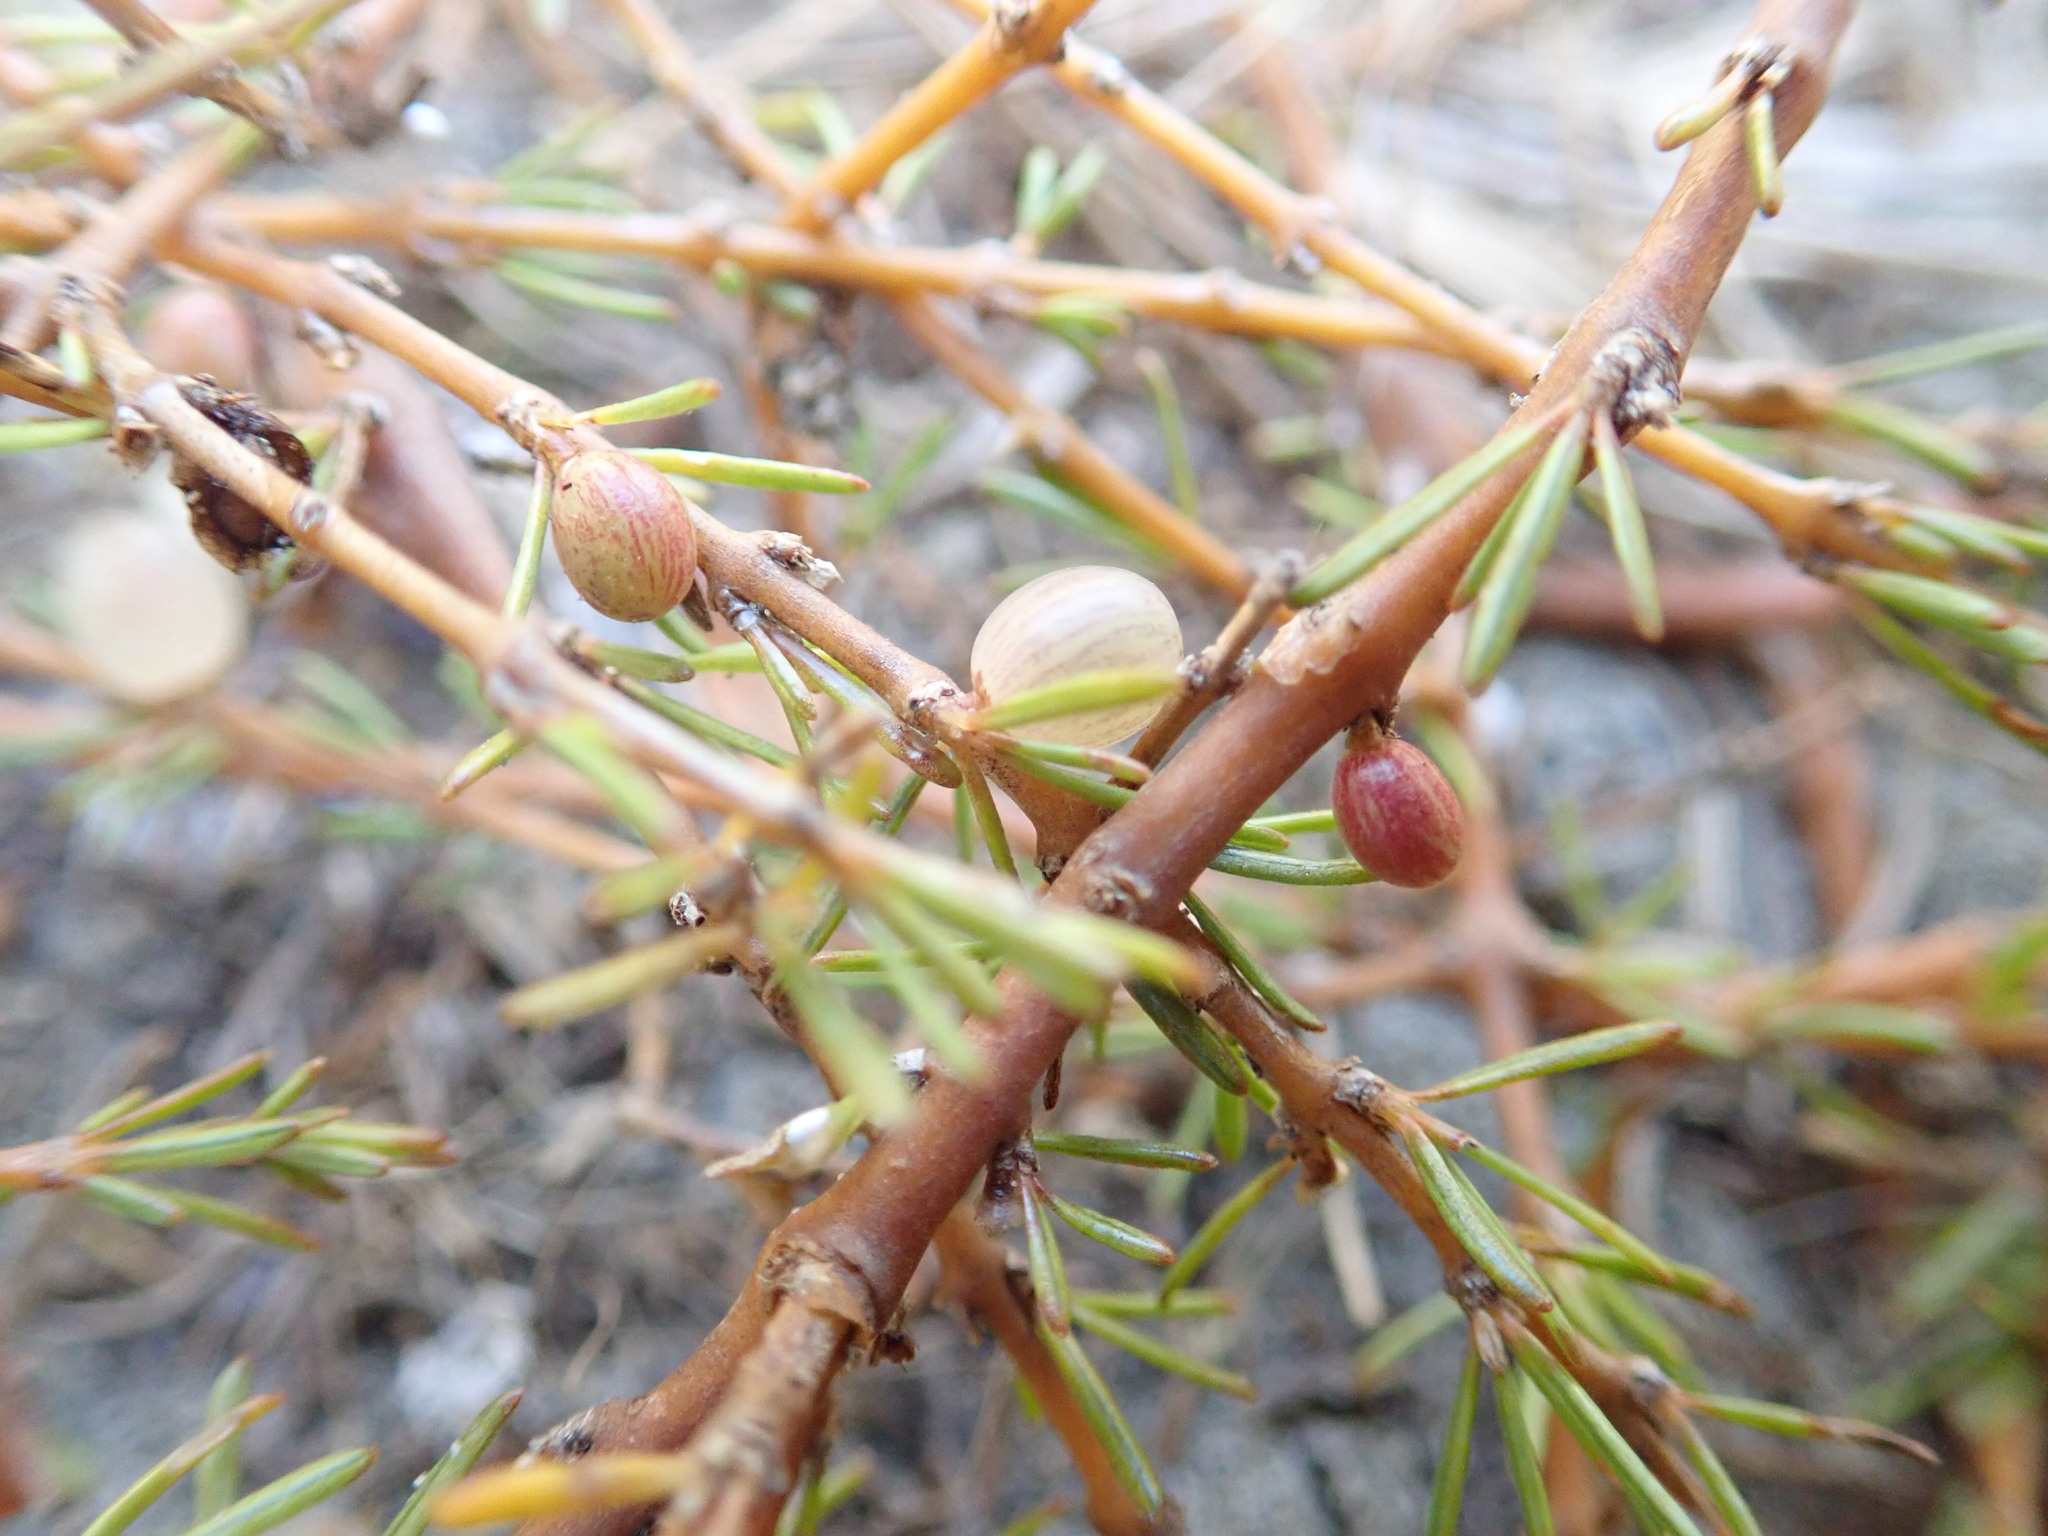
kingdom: Plantae
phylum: Tracheophyta
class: Magnoliopsida
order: Gentianales
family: Rubiaceae
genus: Coprosma
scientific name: Coprosma acerosa
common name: Sand coprosma
